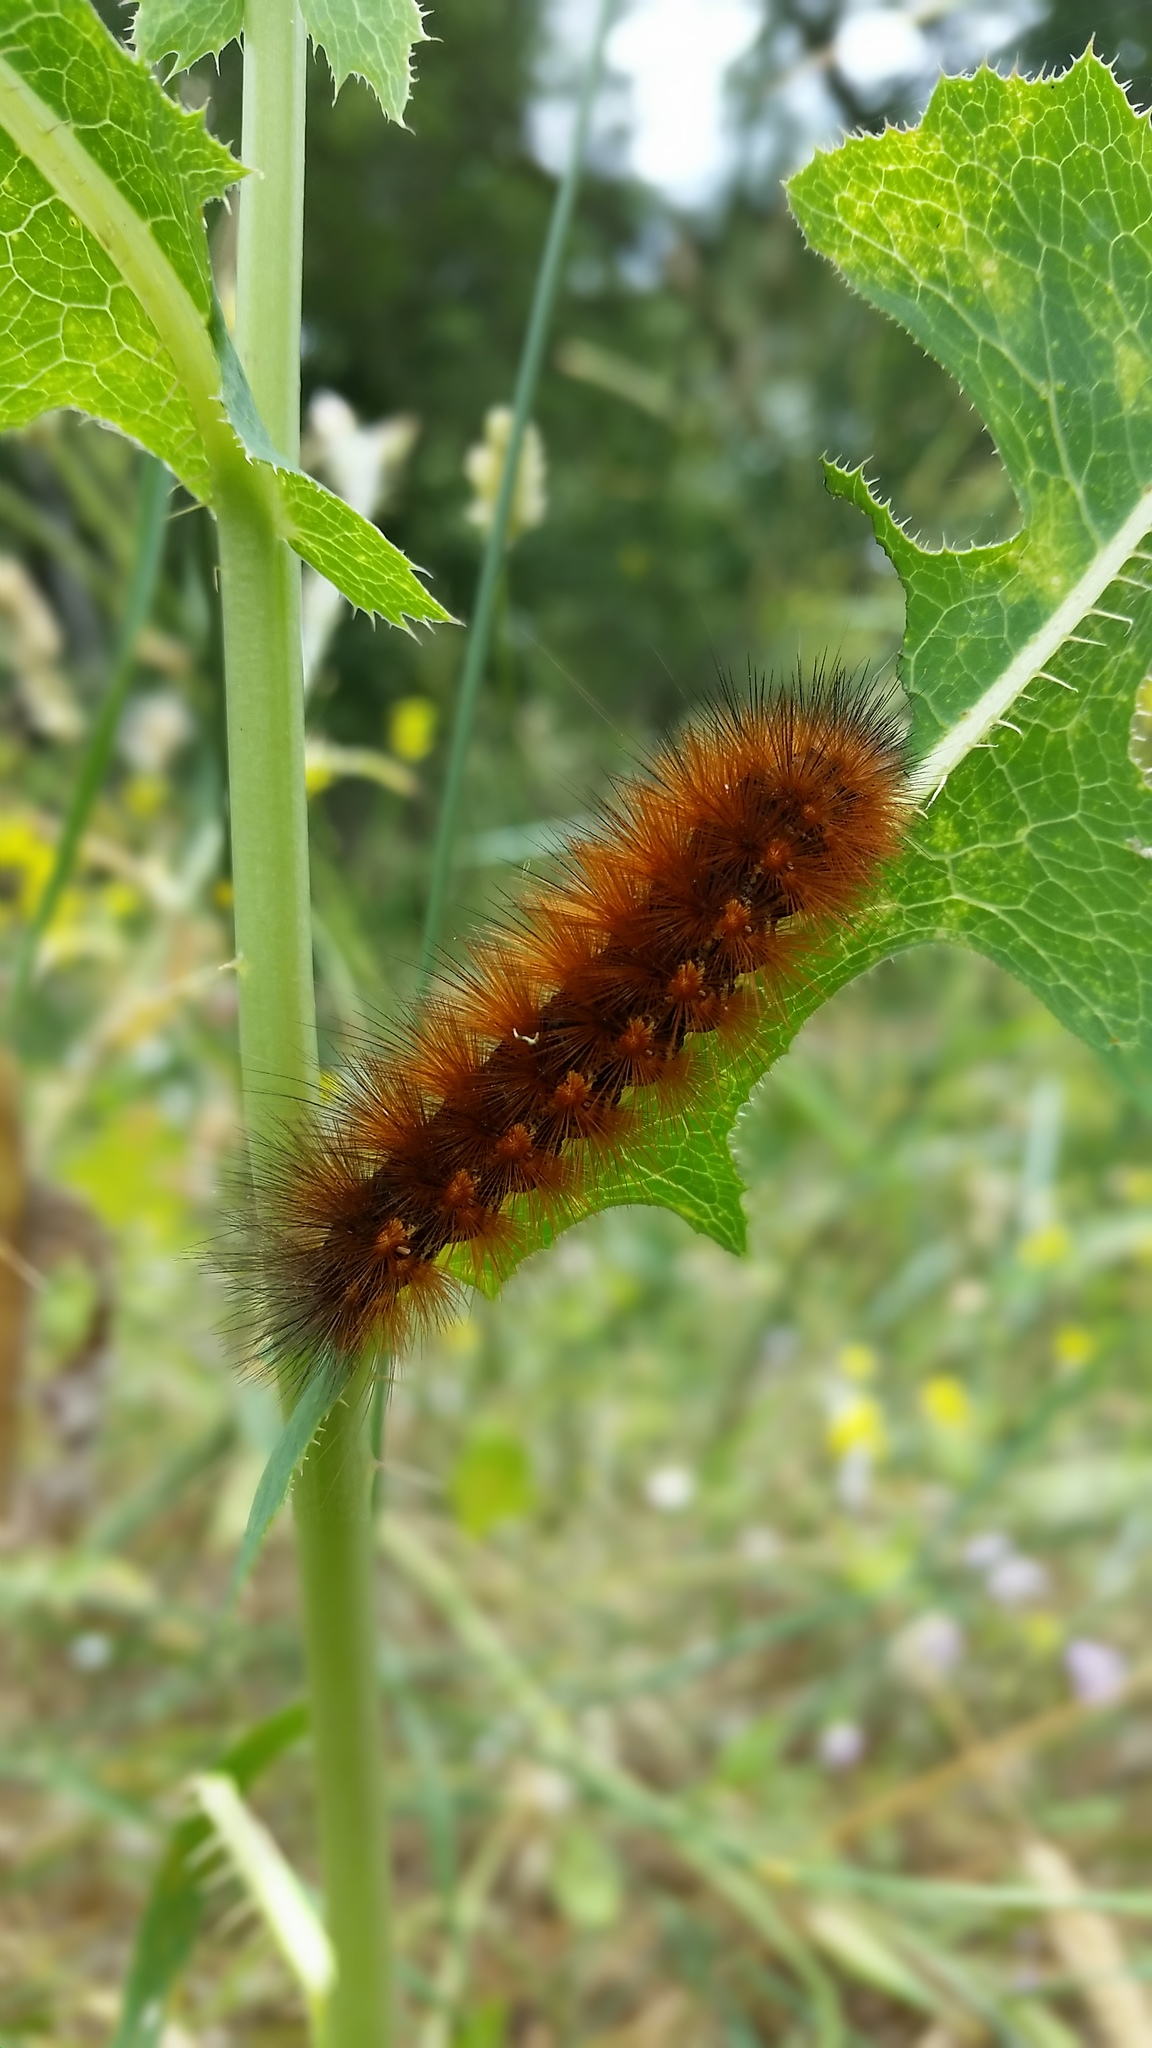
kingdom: Animalia
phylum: Arthropoda
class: Insecta
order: Lepidoptera
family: Erebidae
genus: Estigmene
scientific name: Estigmene acrea
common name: Salt marsh moth
